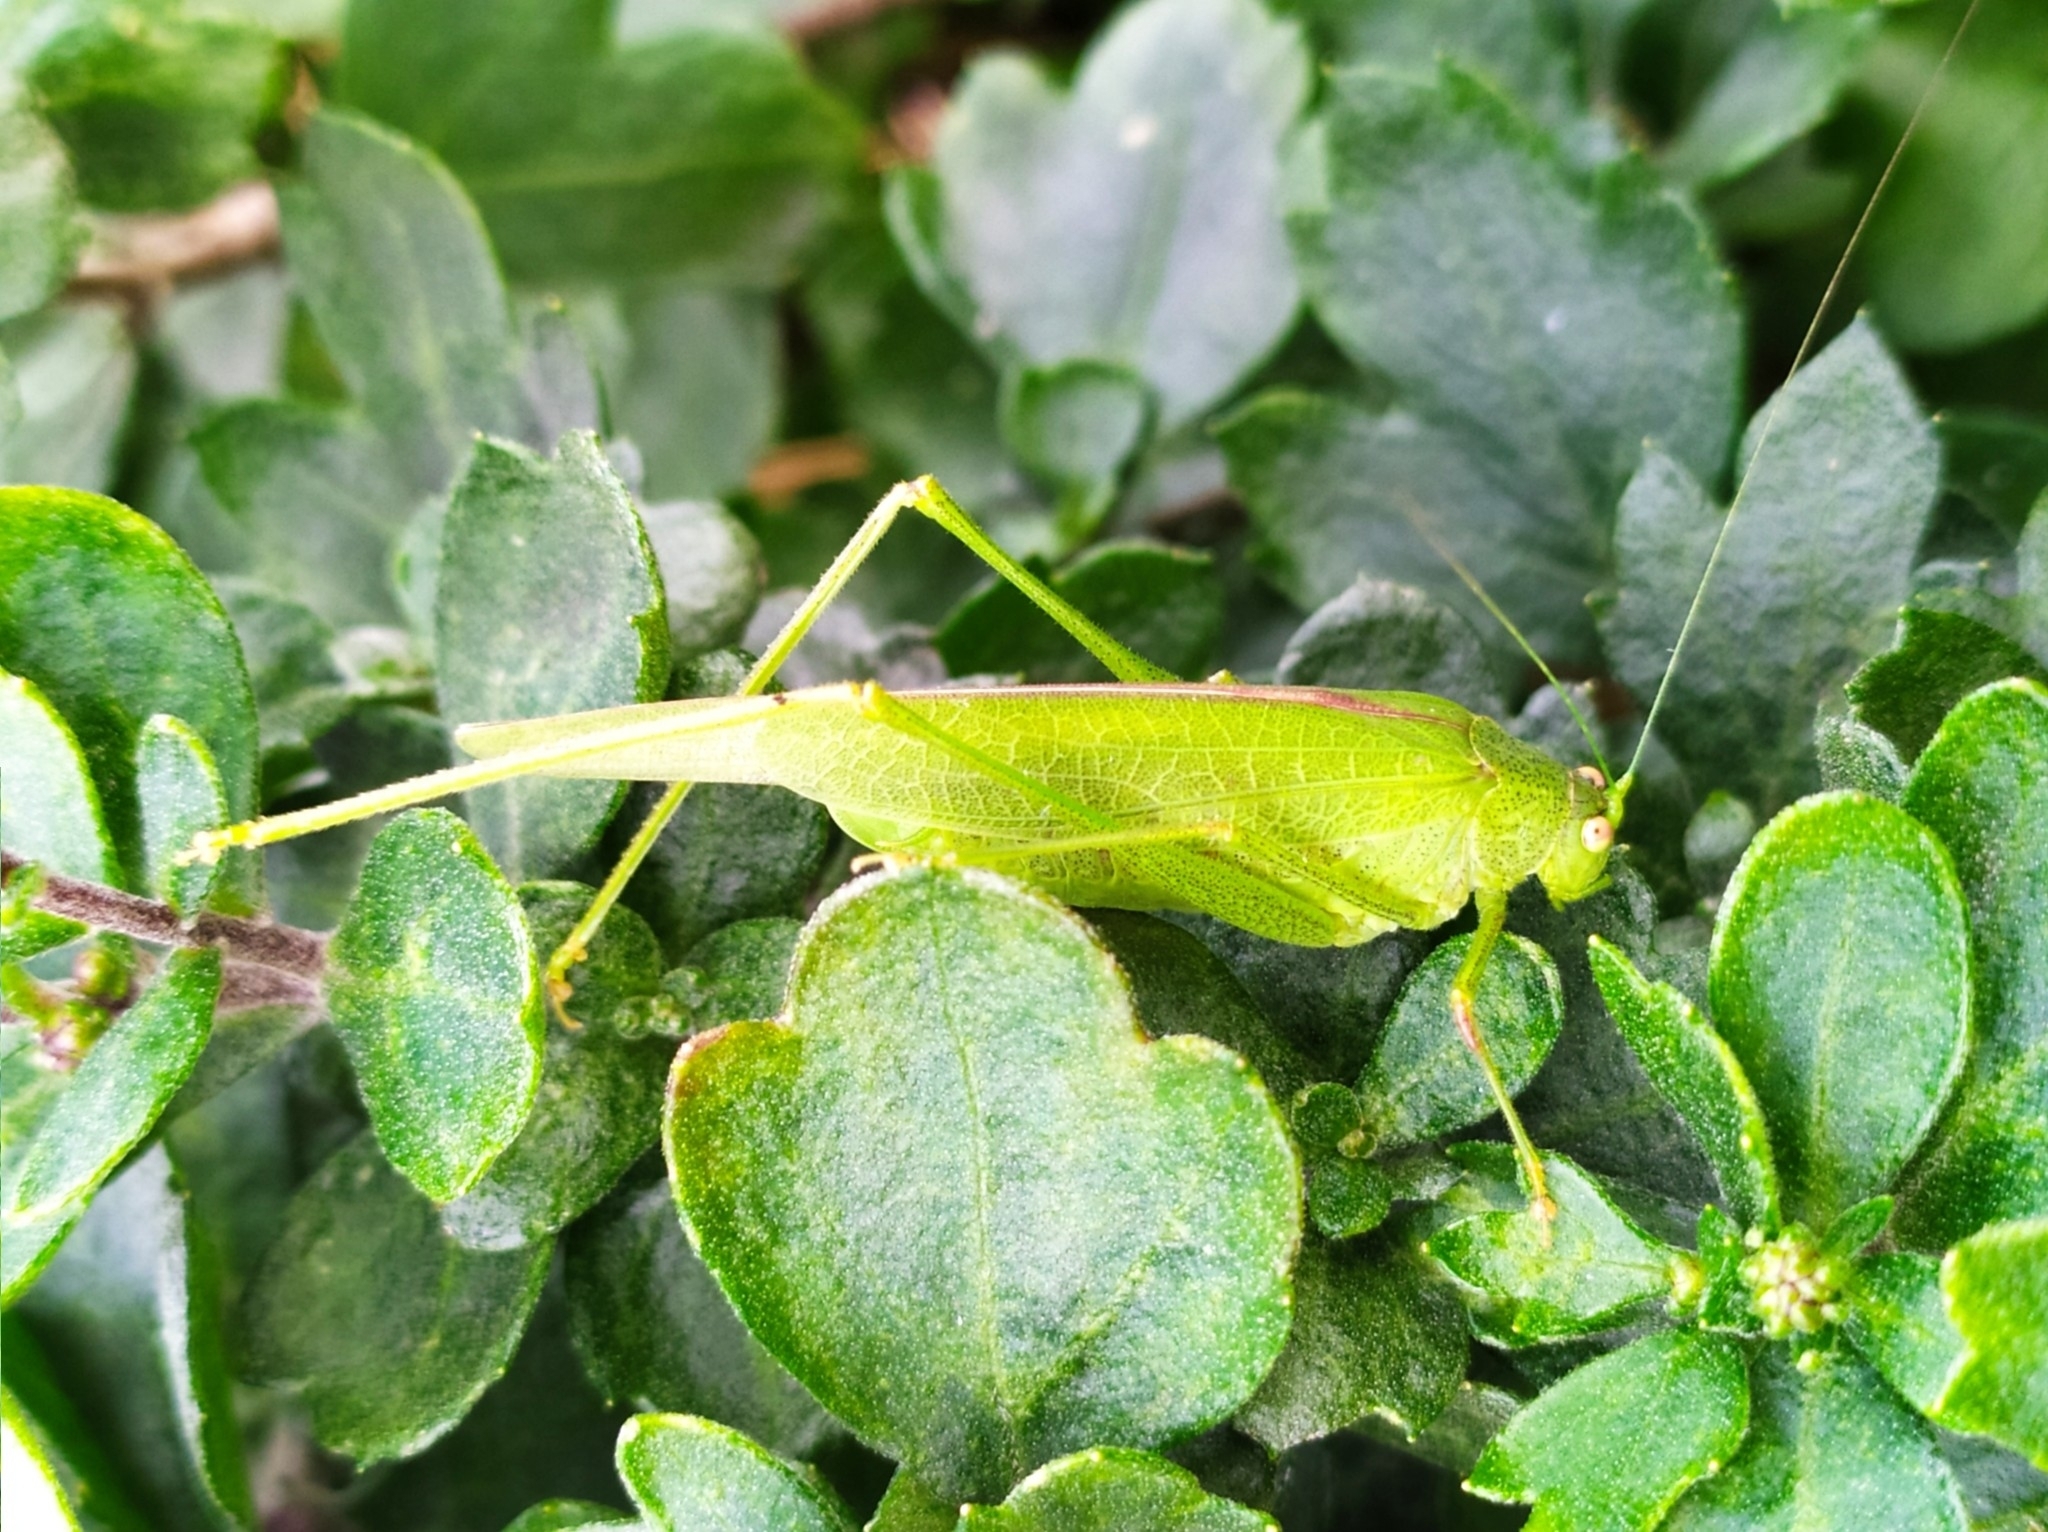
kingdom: Animalia
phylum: Arthropoda
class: Insecta
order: Orthoptera
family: Tettigoniidae
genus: Phaneroptera
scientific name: Phaneroptera nana
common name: Southern sickle bush-cricket
